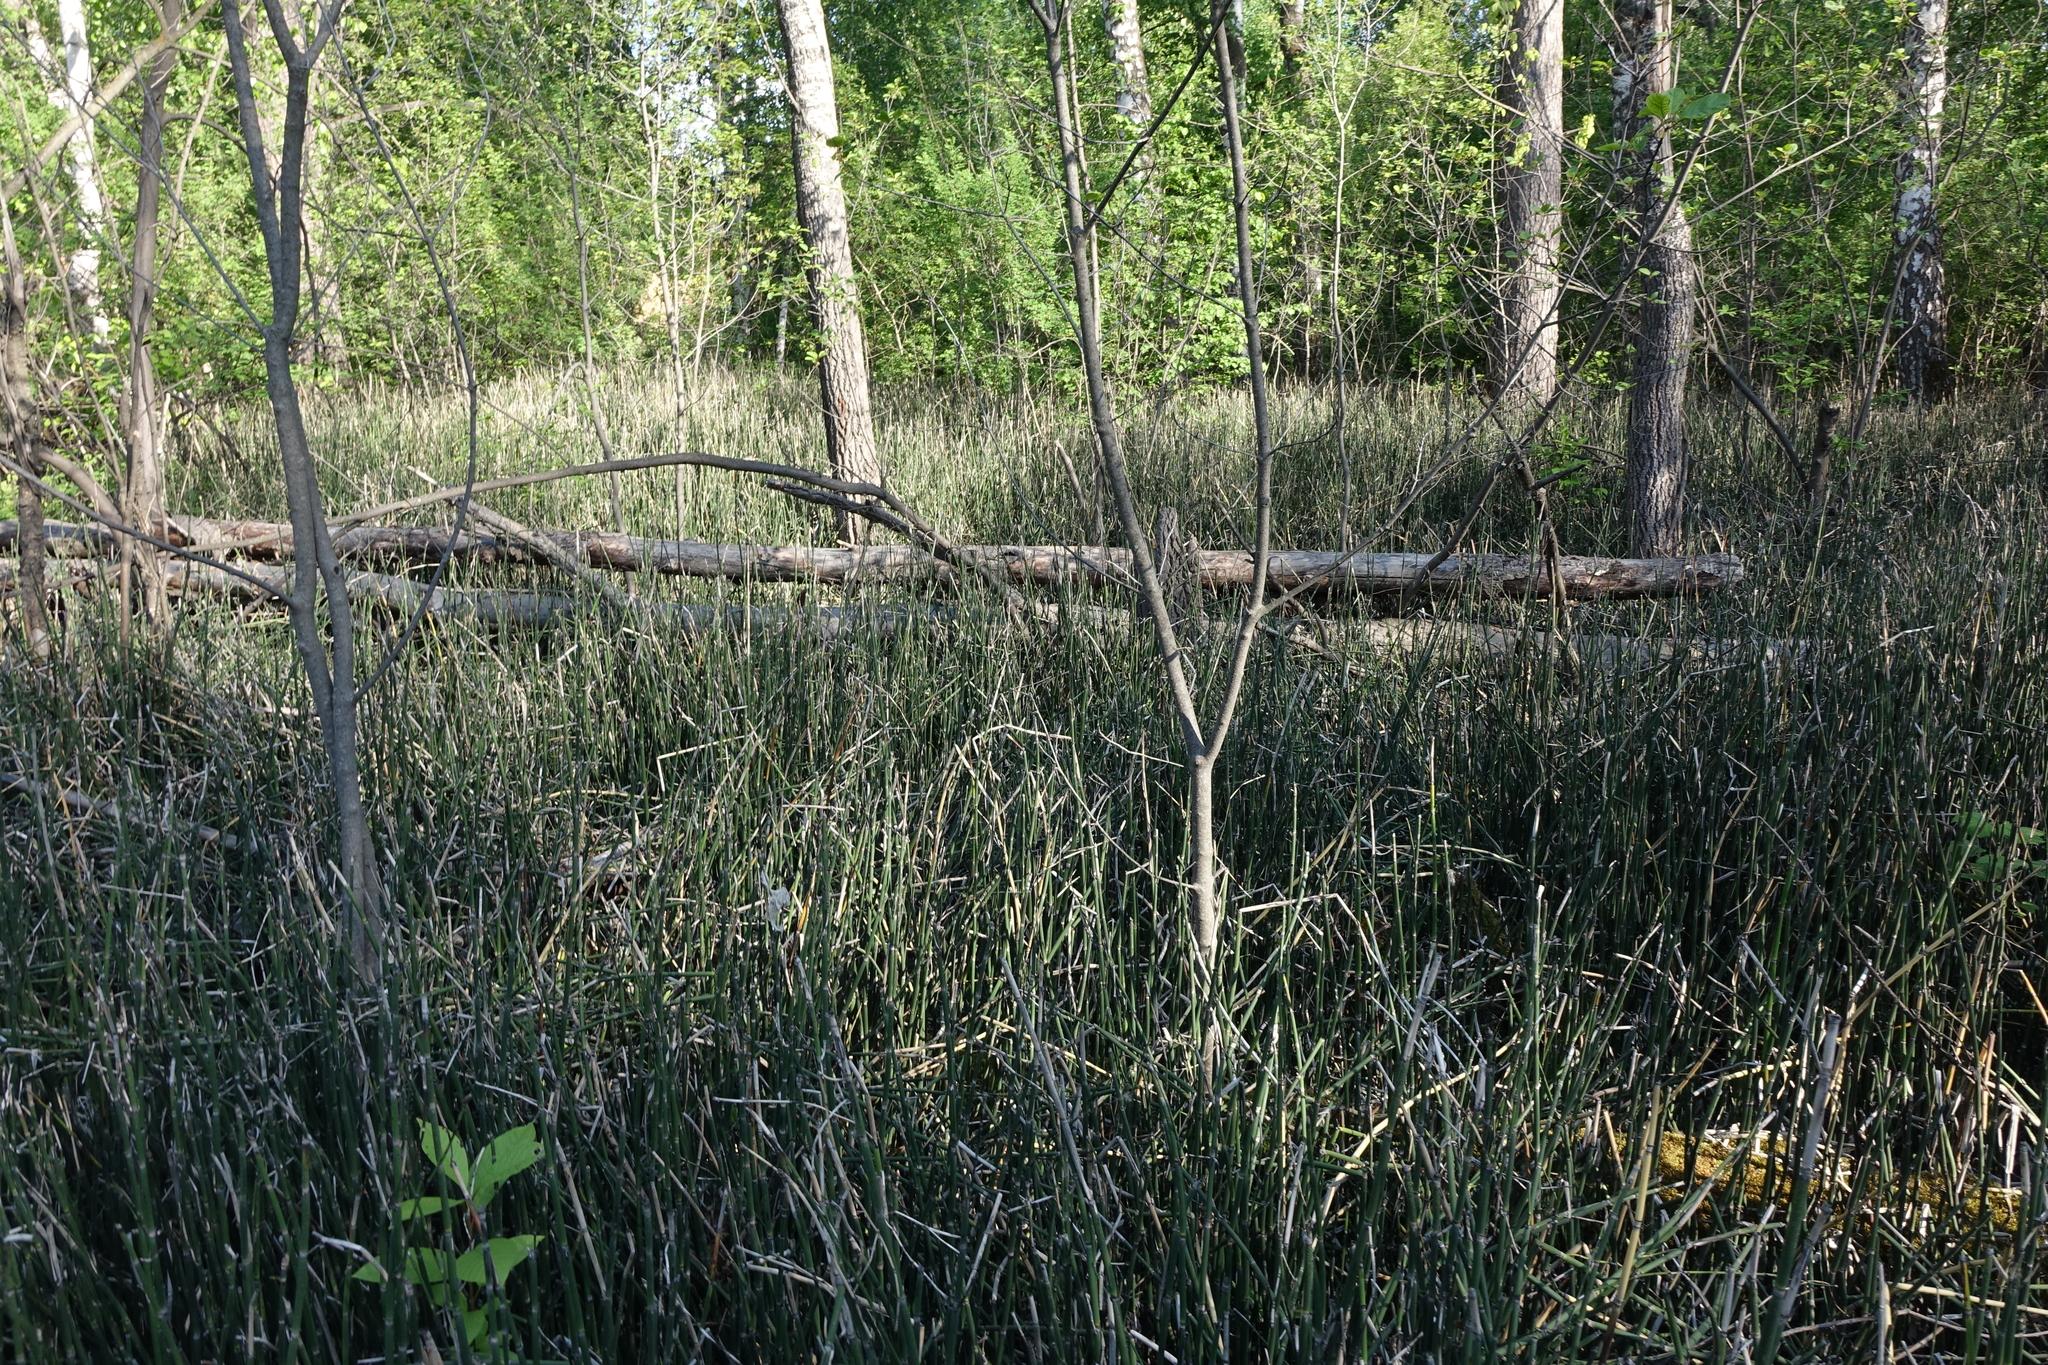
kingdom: Plantae
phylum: Tracheophyta
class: Polypodiopsida
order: Equisetales
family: Equisetaceae
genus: Equisetum
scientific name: Equisetum hyemale
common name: Rough horsetail
